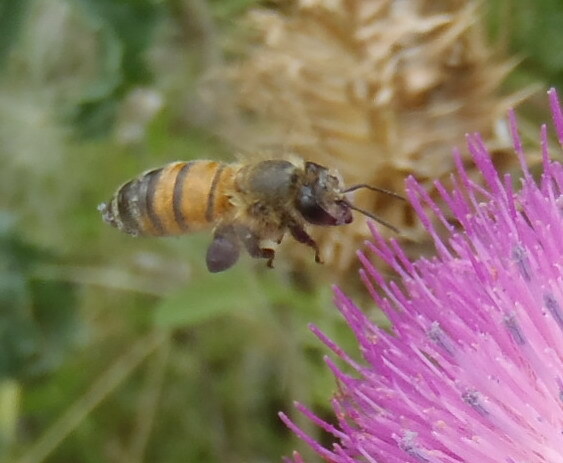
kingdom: Animalia
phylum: Arthropoda
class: Insecta
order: Hymenoptera
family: Apidae
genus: Apis
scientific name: Apis mellifera
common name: Honey bee
